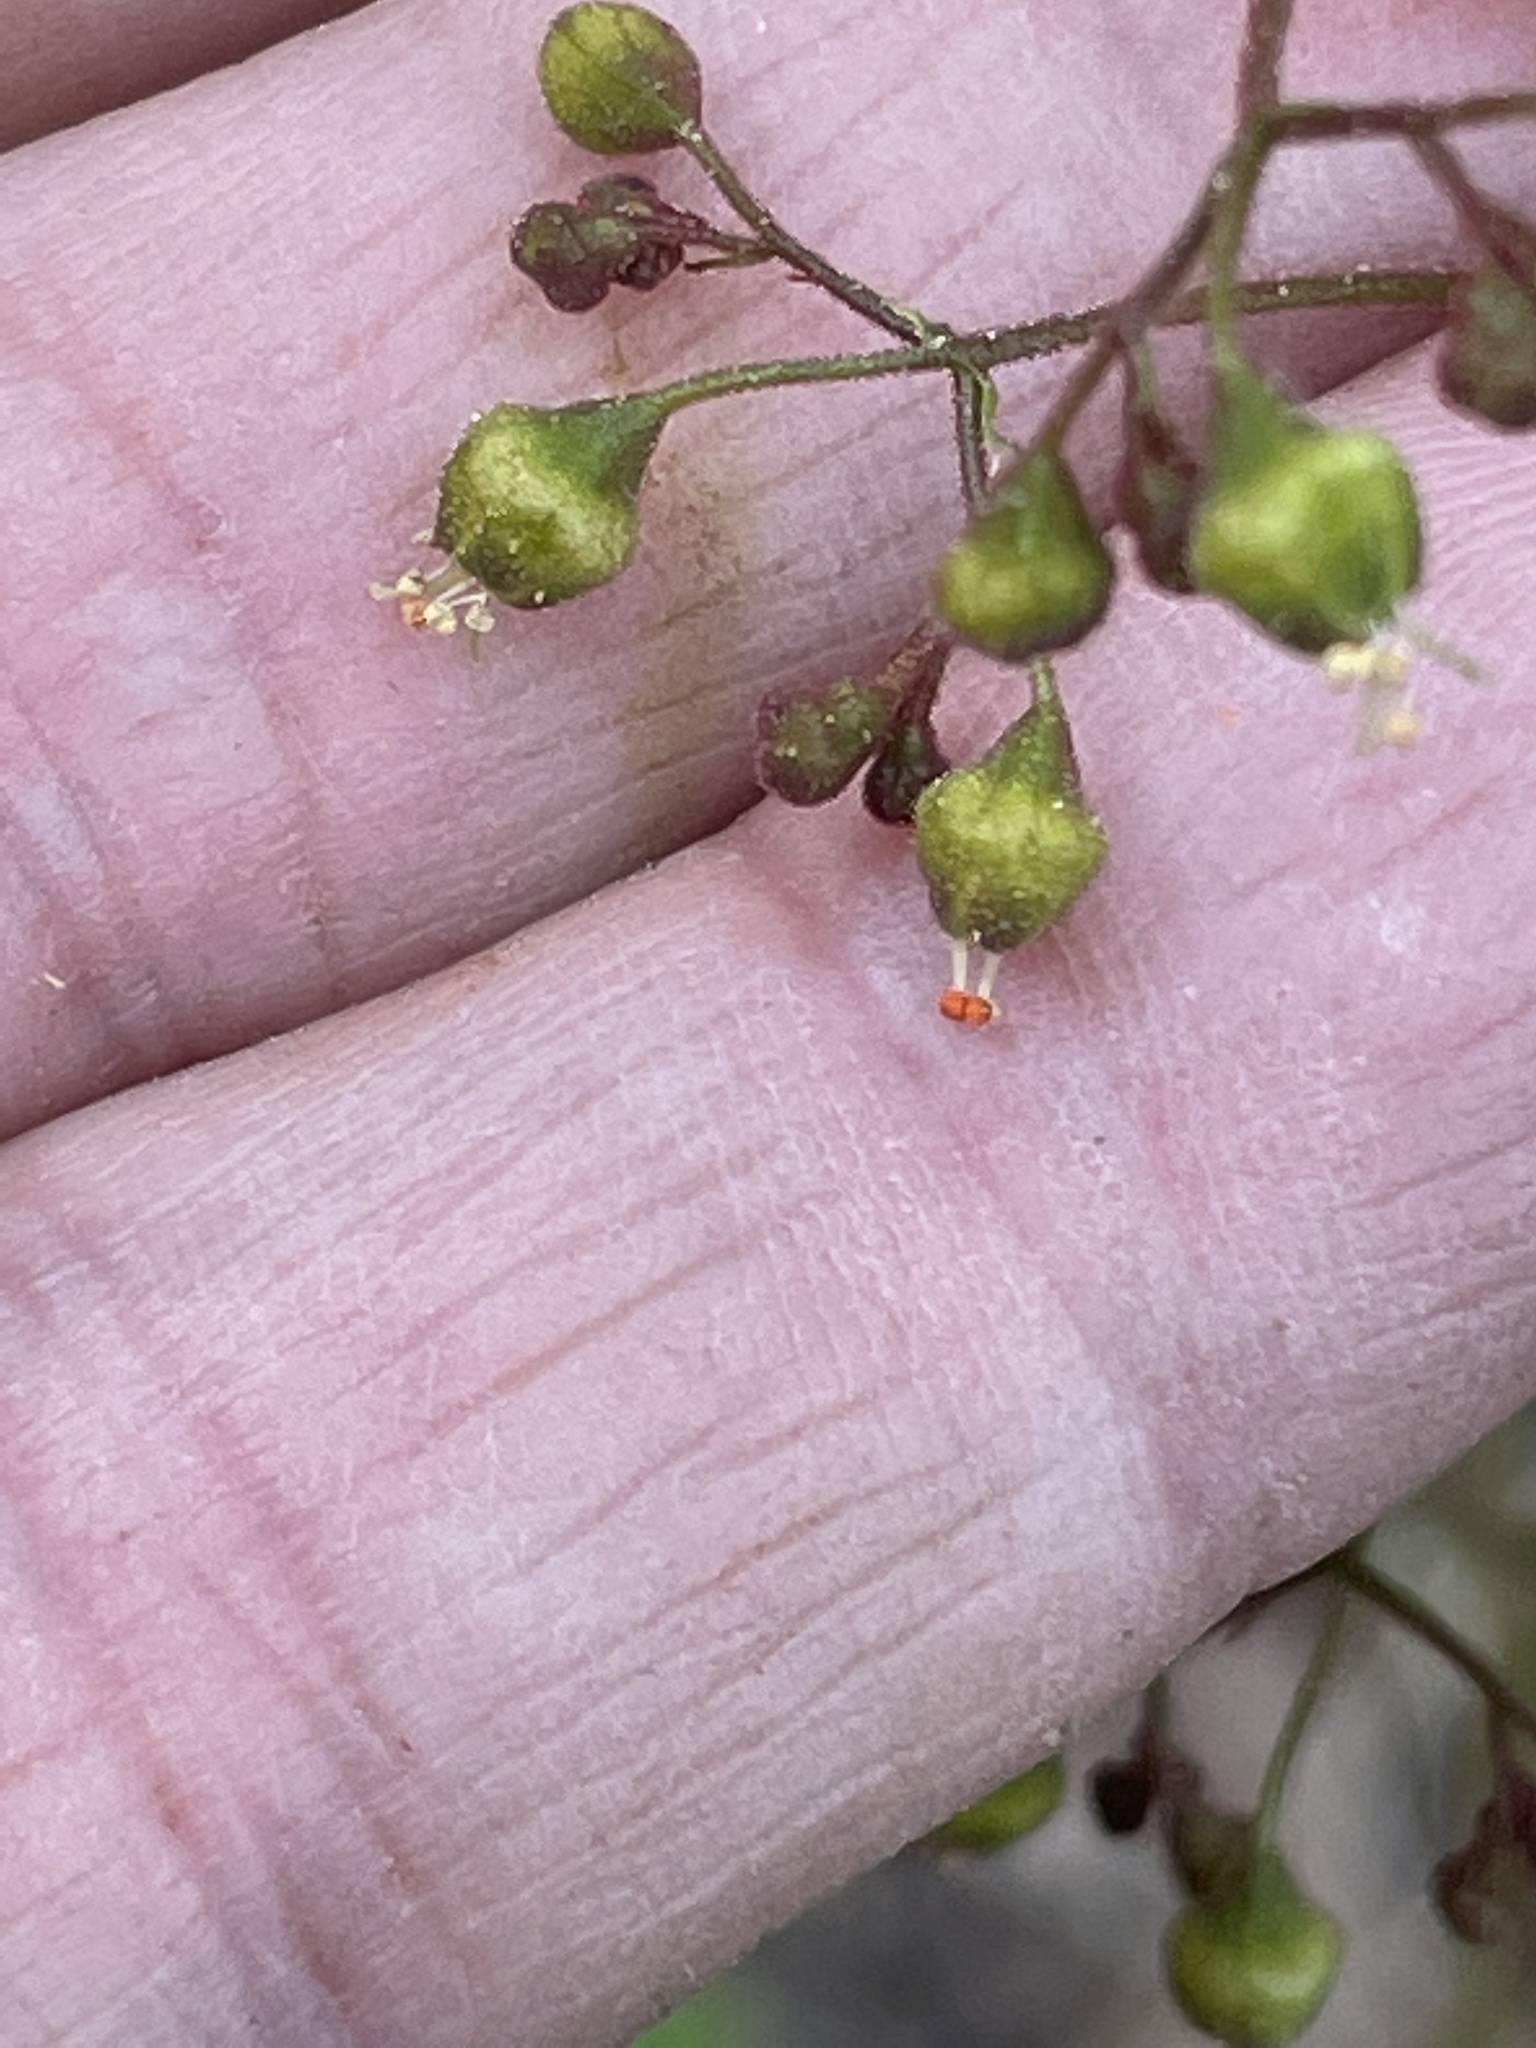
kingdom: Plantae
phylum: Tracheophyta
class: Magnoliopsida
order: Saxifragales
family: Saxifragaceae
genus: Heuchera
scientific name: Heuchera caroliniana
